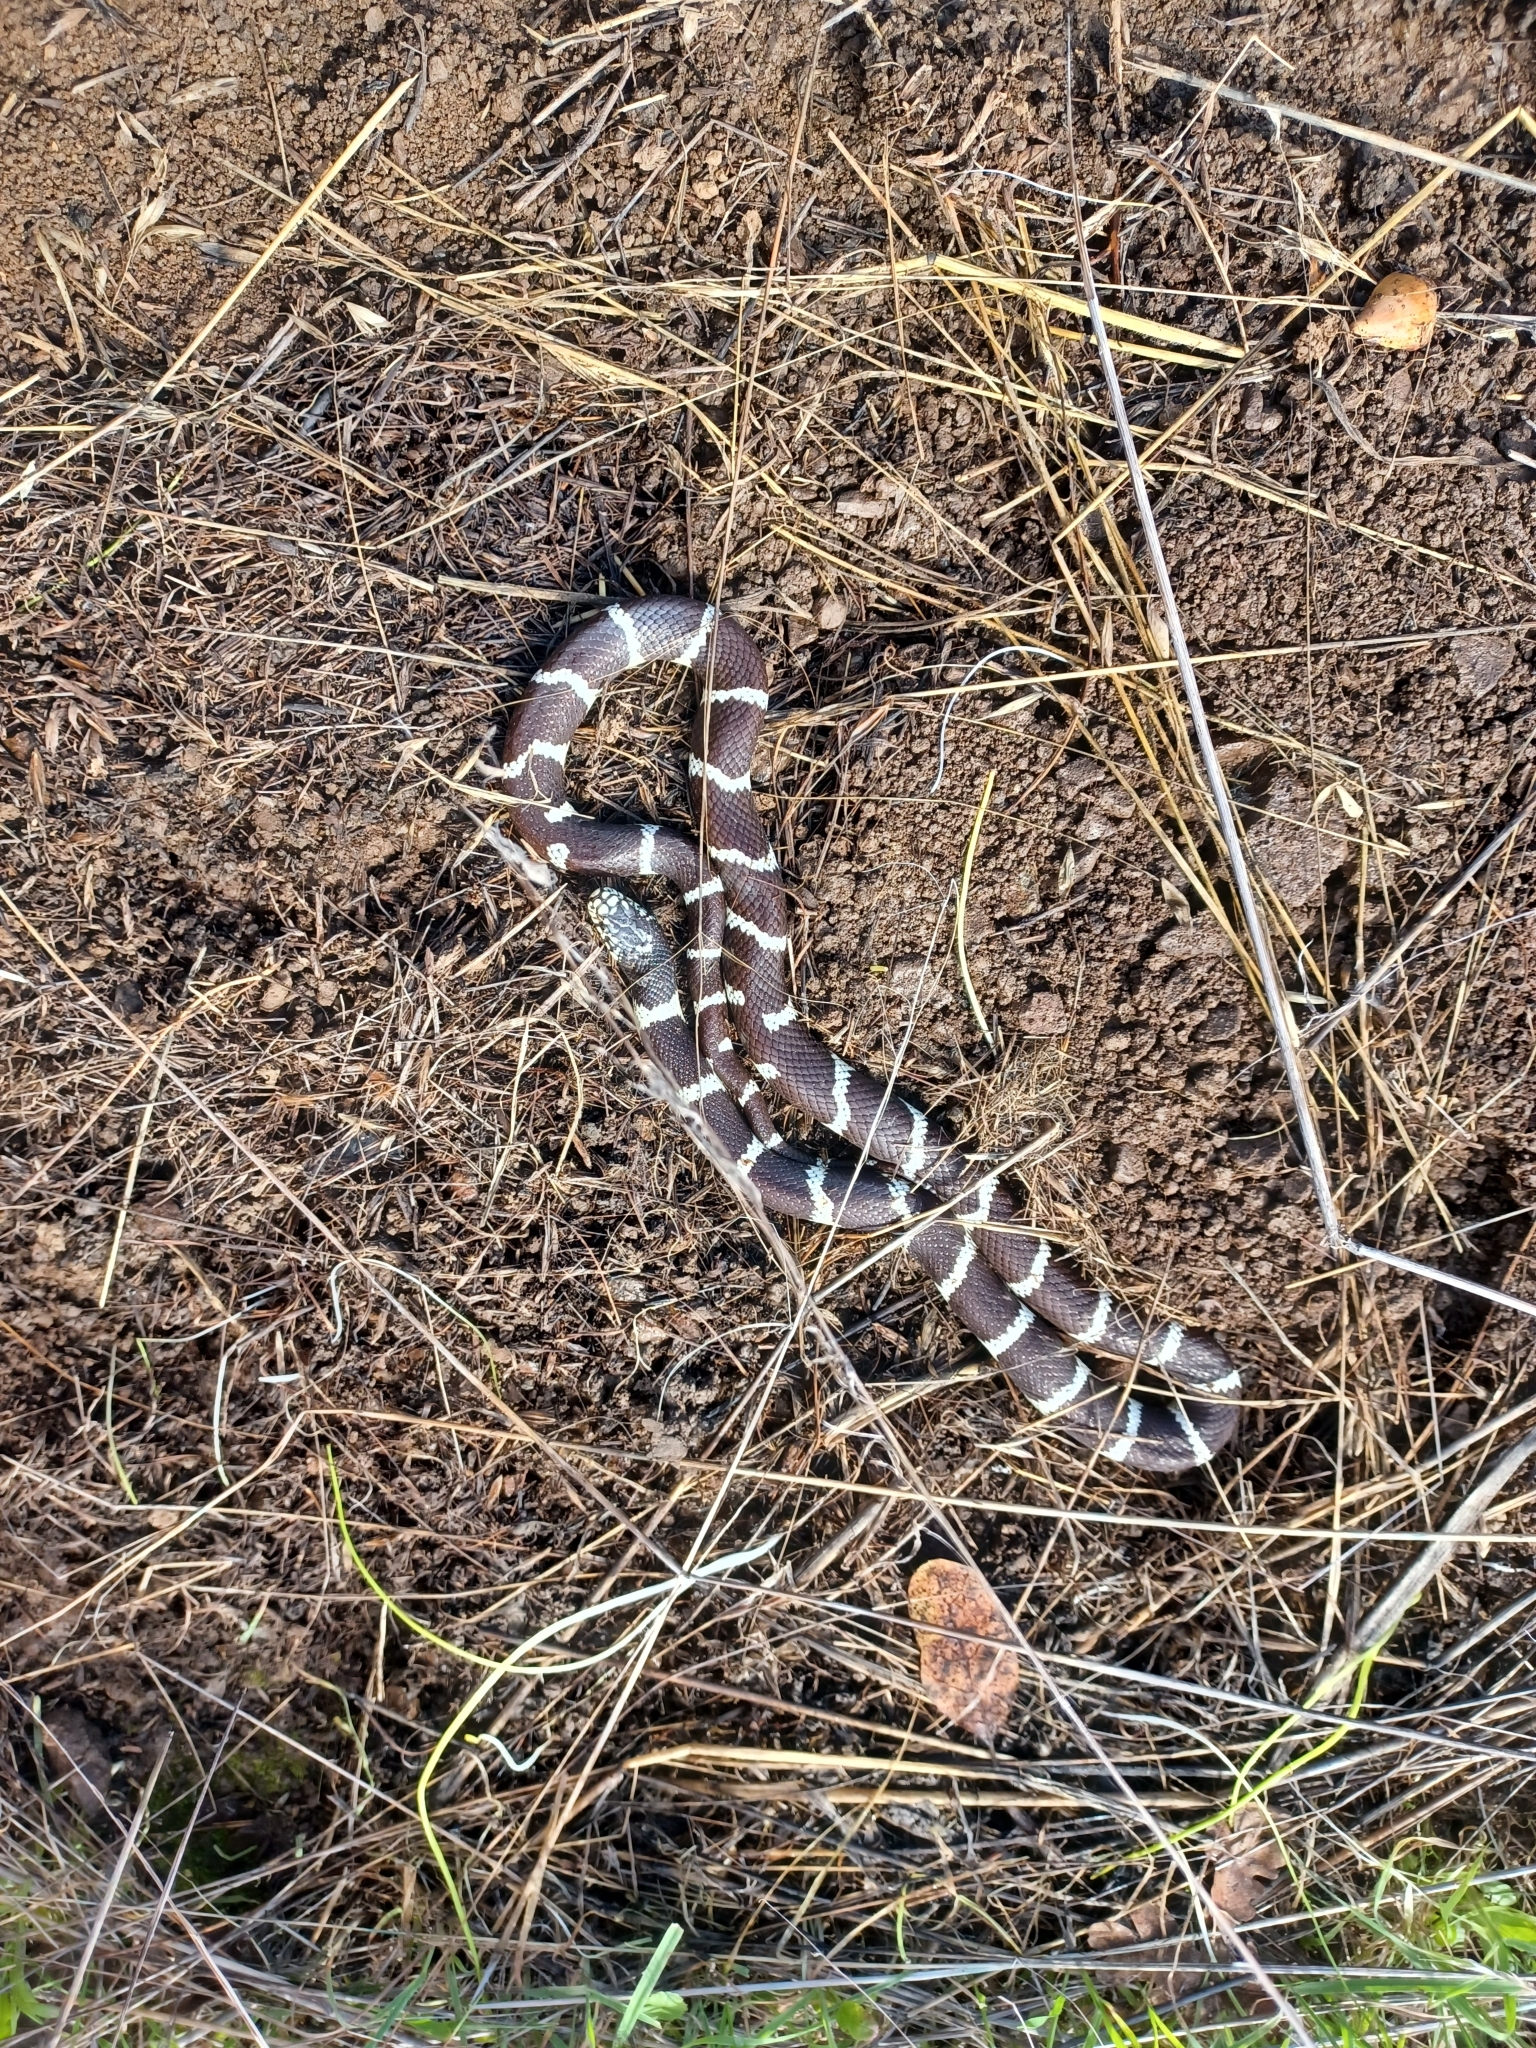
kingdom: Animalia
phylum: Chordata
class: Squamata
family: Colubridae
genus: Lampropeltis
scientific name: Lampropeltis californiae
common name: California kingsnake
